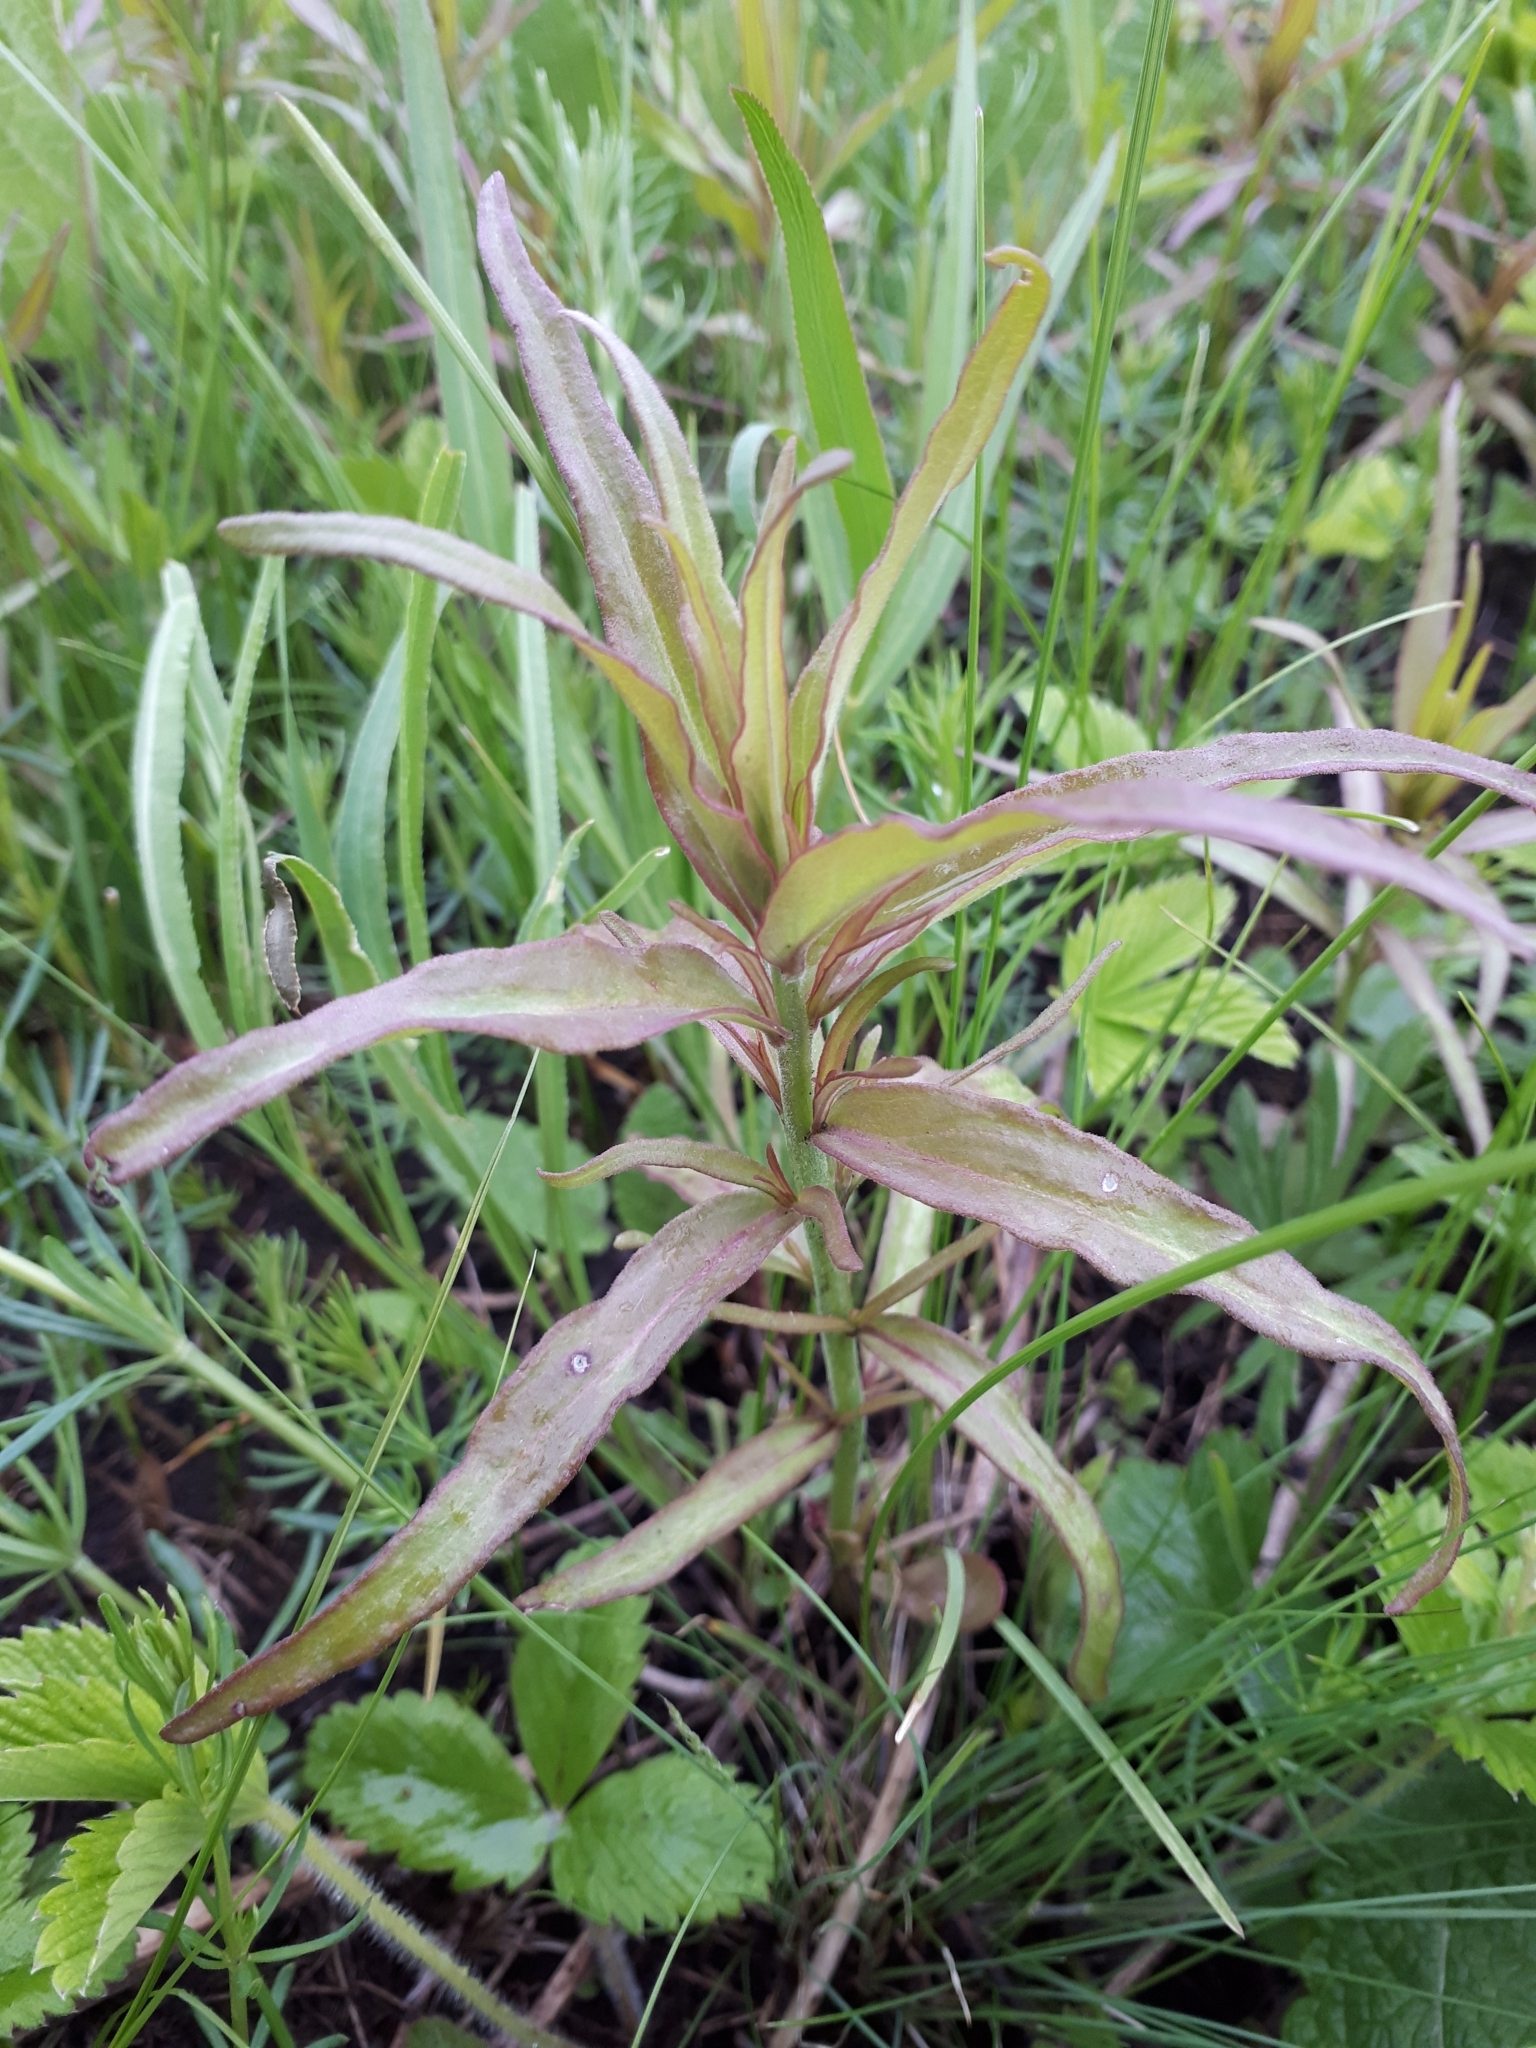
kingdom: Plantae
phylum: Tracheophyta
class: Magnoliopsida
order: Lamiales
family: Orobanchaceae
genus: Melampyrum
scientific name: Melampyrum nemorosum
